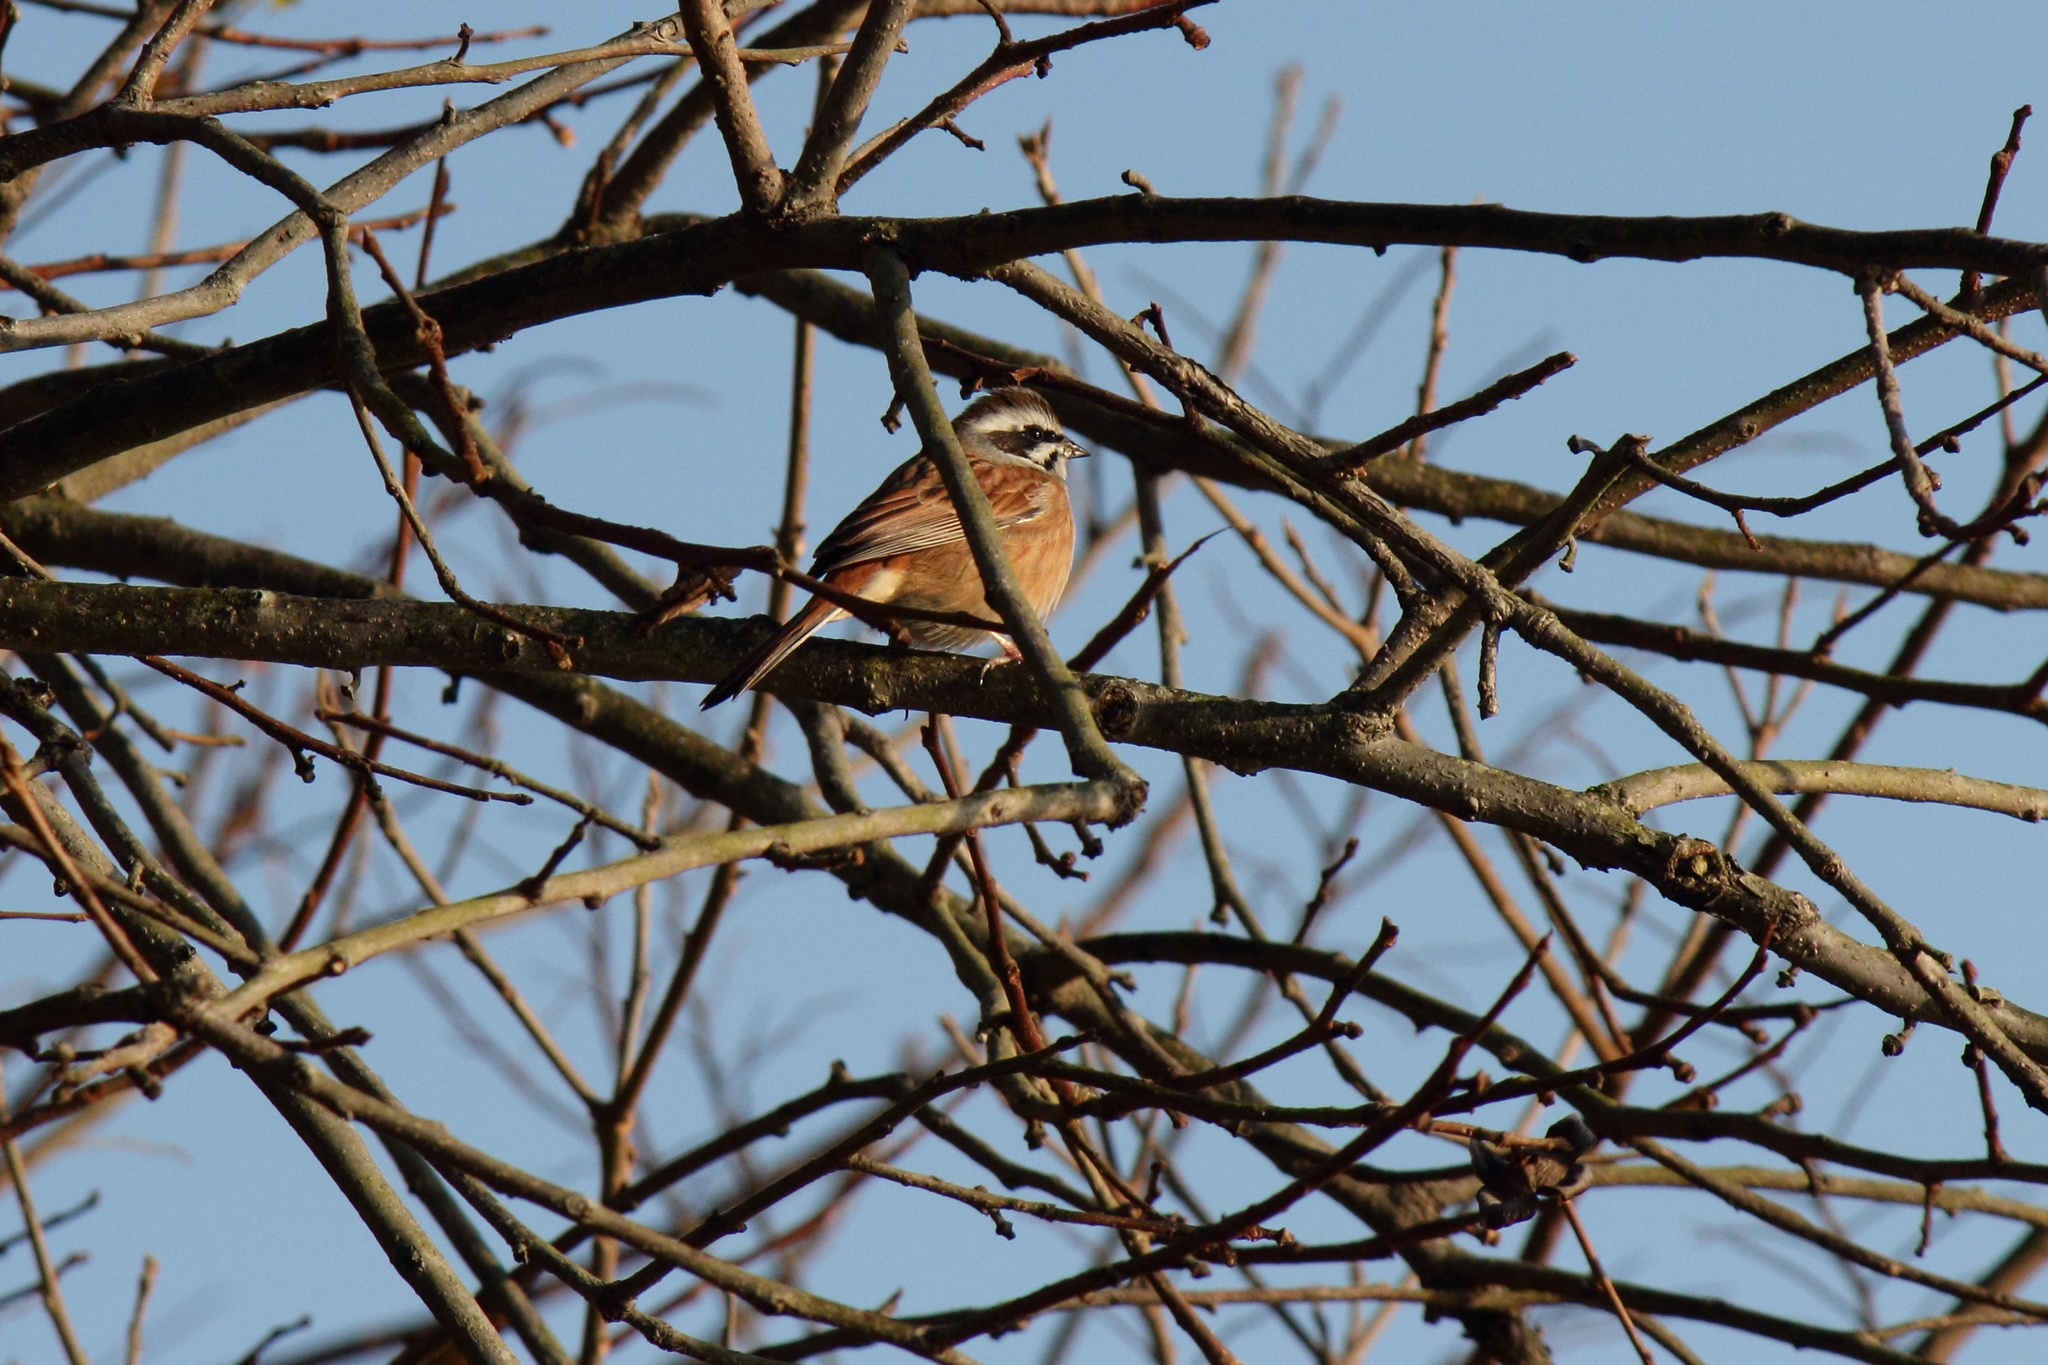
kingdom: Animalia
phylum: Chordata
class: Aves
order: Passeriformes
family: Emberizidae
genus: Emberiza
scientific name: Emberiza cioides
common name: Meadow bunting
